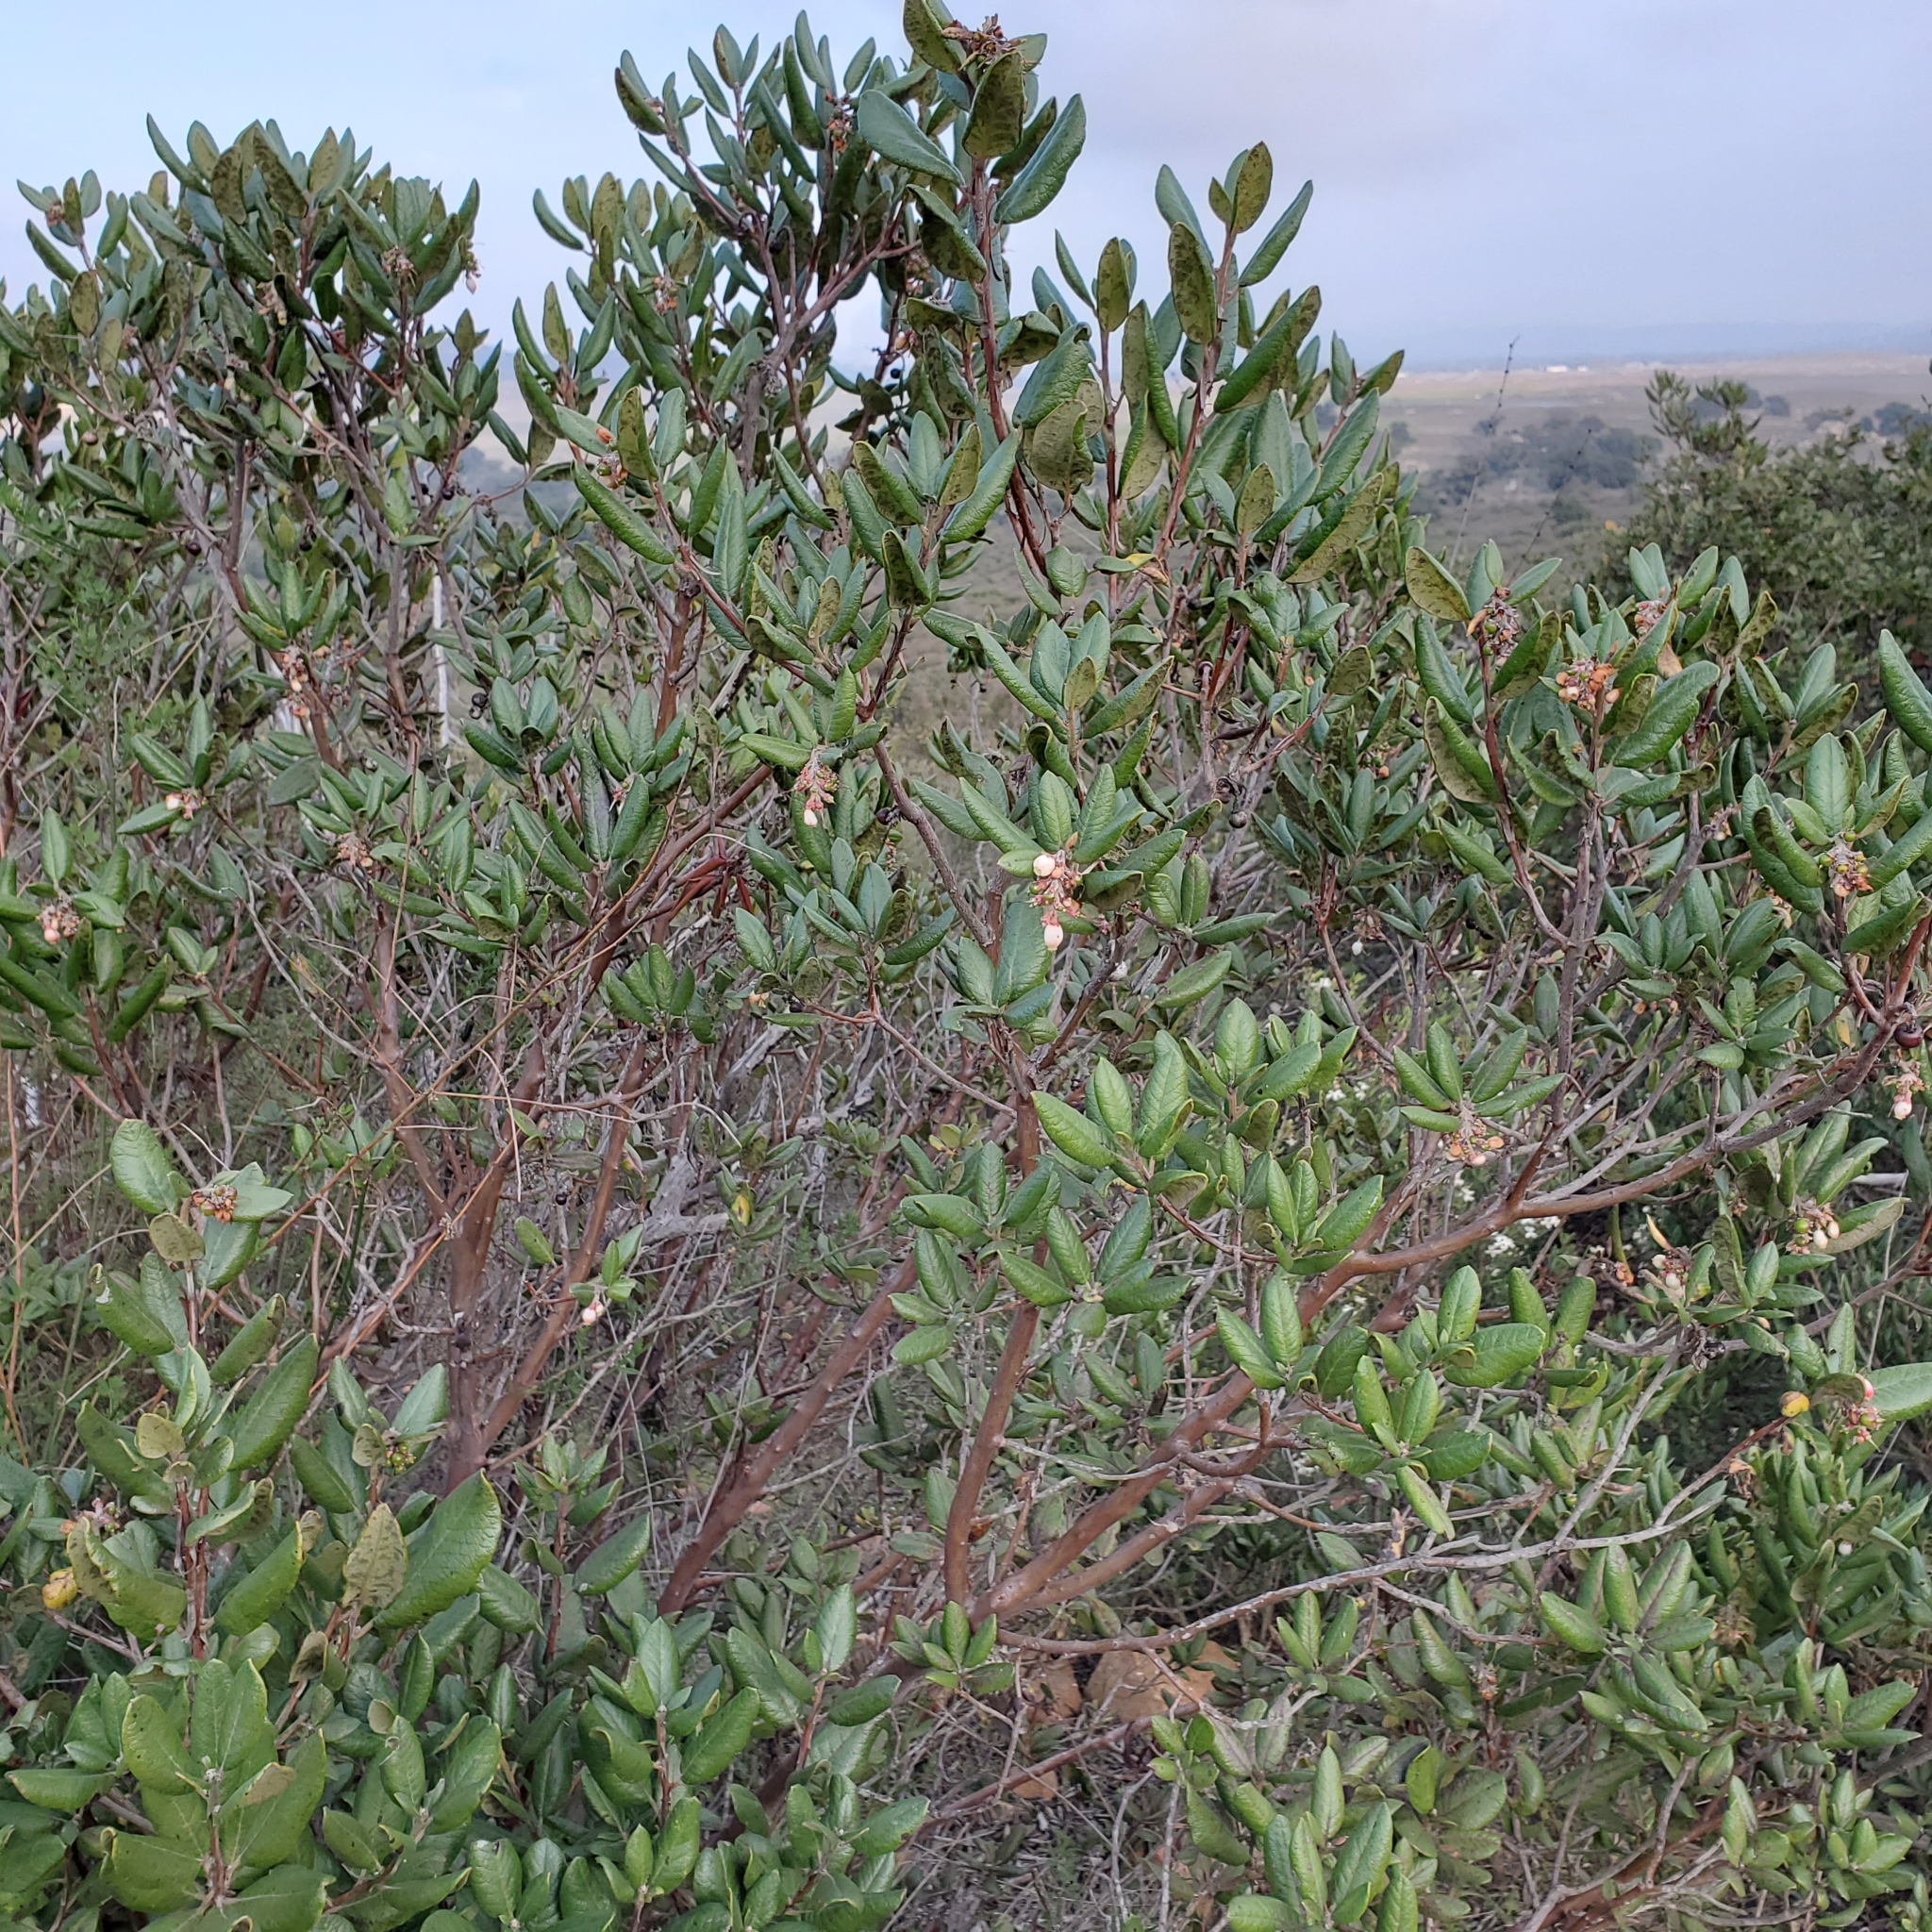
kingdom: Plantae
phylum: Tracheophyta
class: Magnoliopsida
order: Ericales
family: Ericaceae
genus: Arctostaphylos
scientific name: Arctostaphylos bicolor
